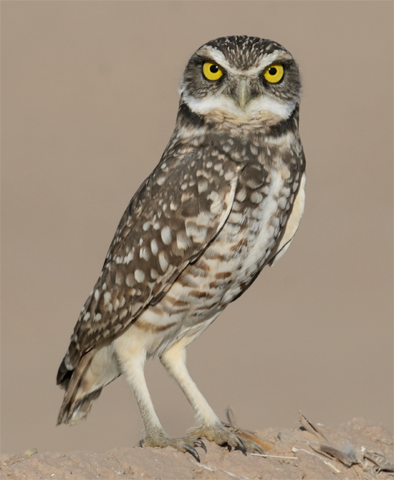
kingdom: Animalia
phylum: Chordata
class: Aves
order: Strigiformes
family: Strigidae
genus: Athene
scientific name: Athene cunicularia
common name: Burrowing owl
